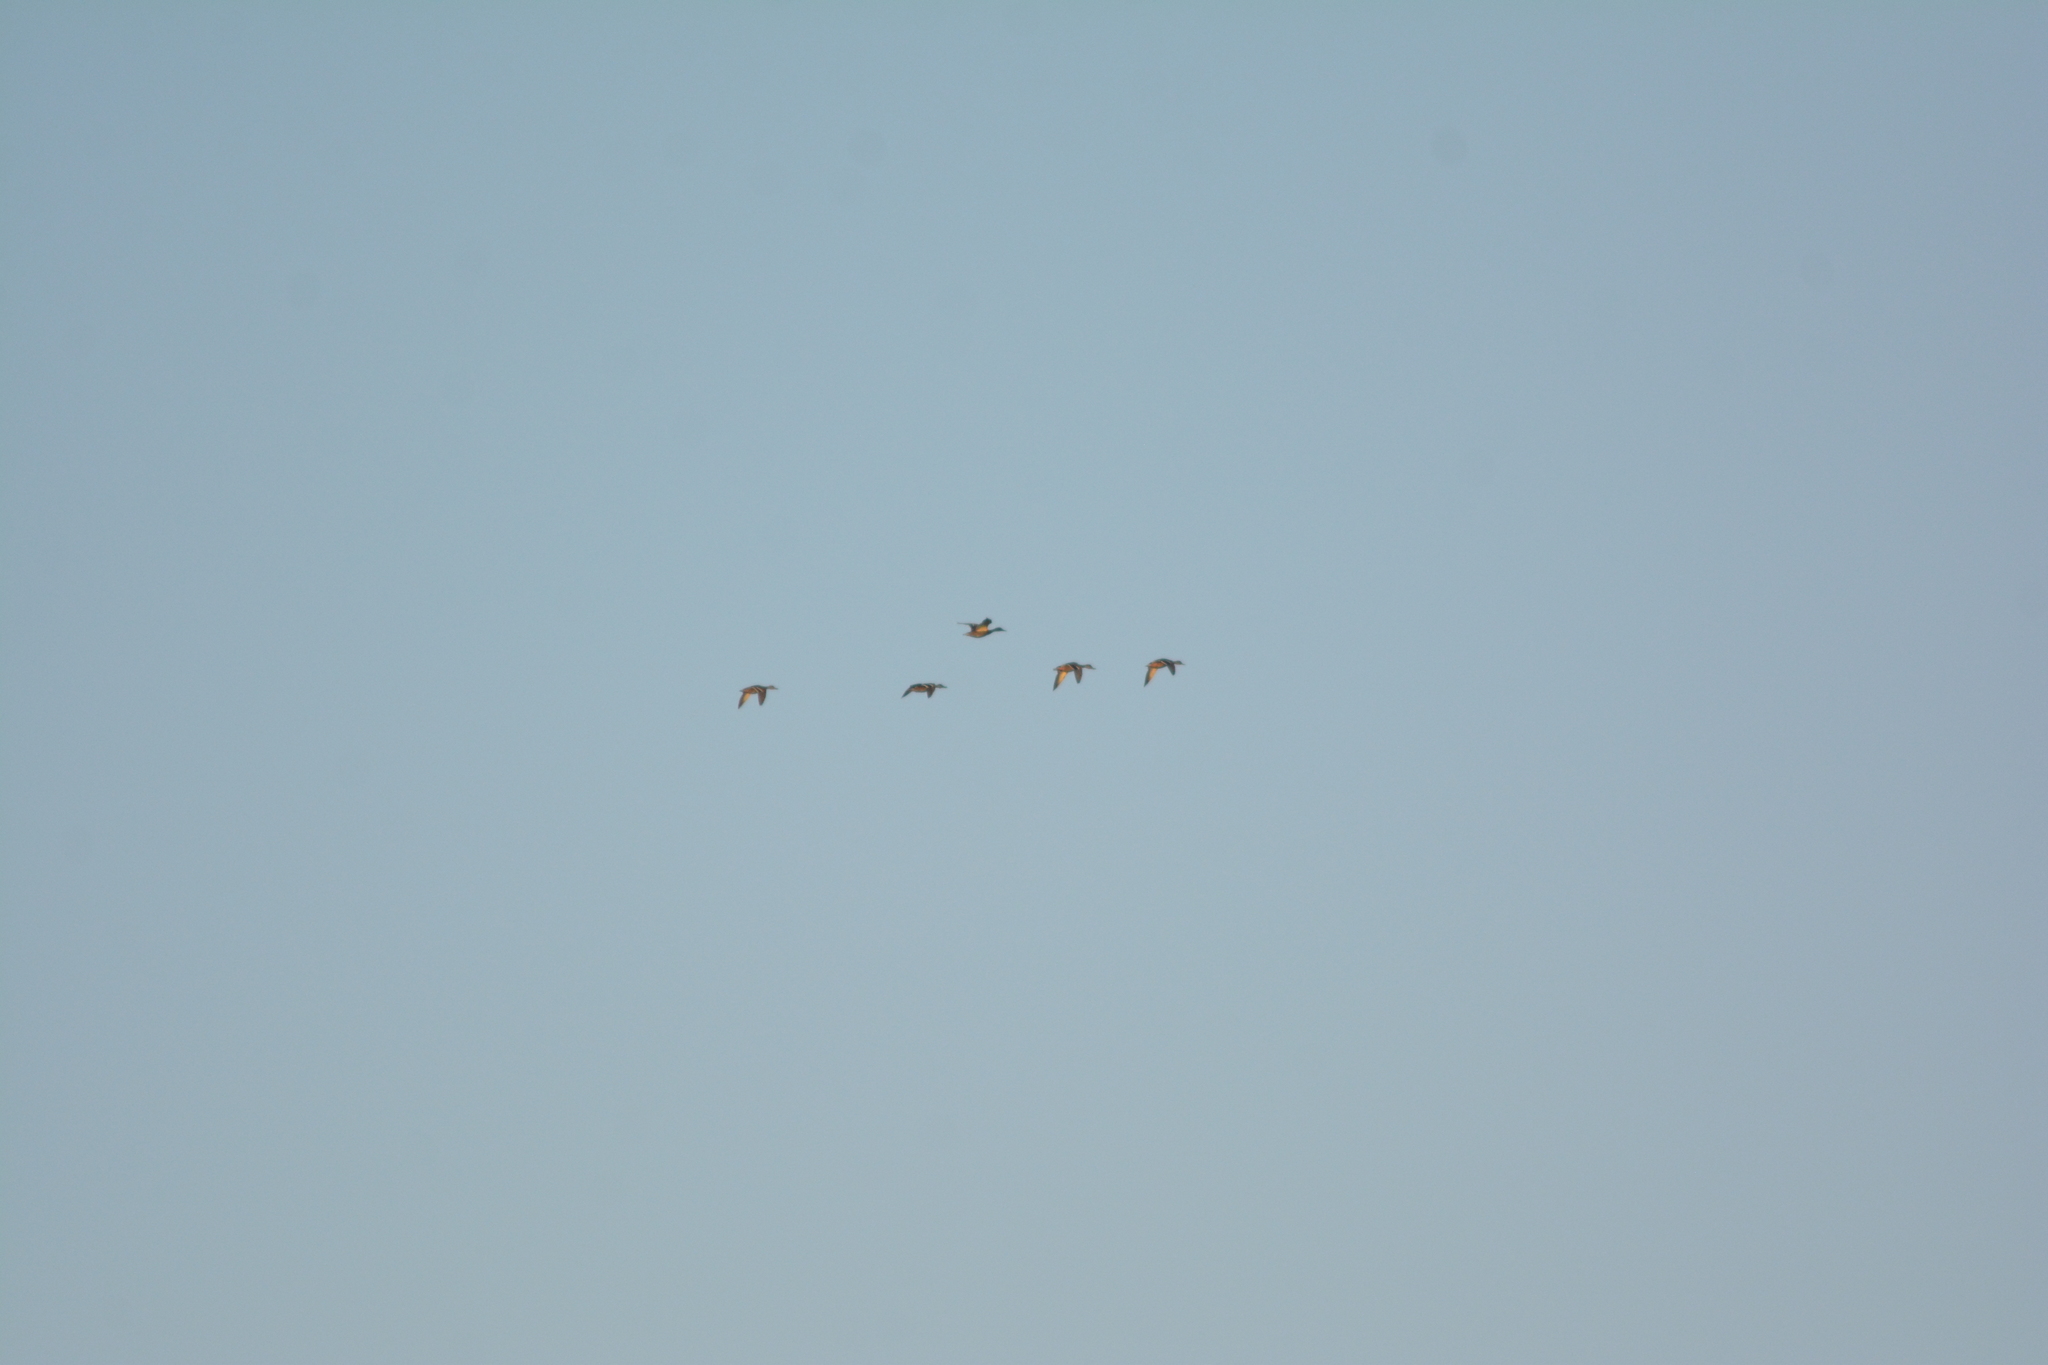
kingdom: Animalia
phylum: Chordata
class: Aves
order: Anseriformes
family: Anatidae
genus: Anas
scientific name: Anas platyrhynchos
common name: Mallard
